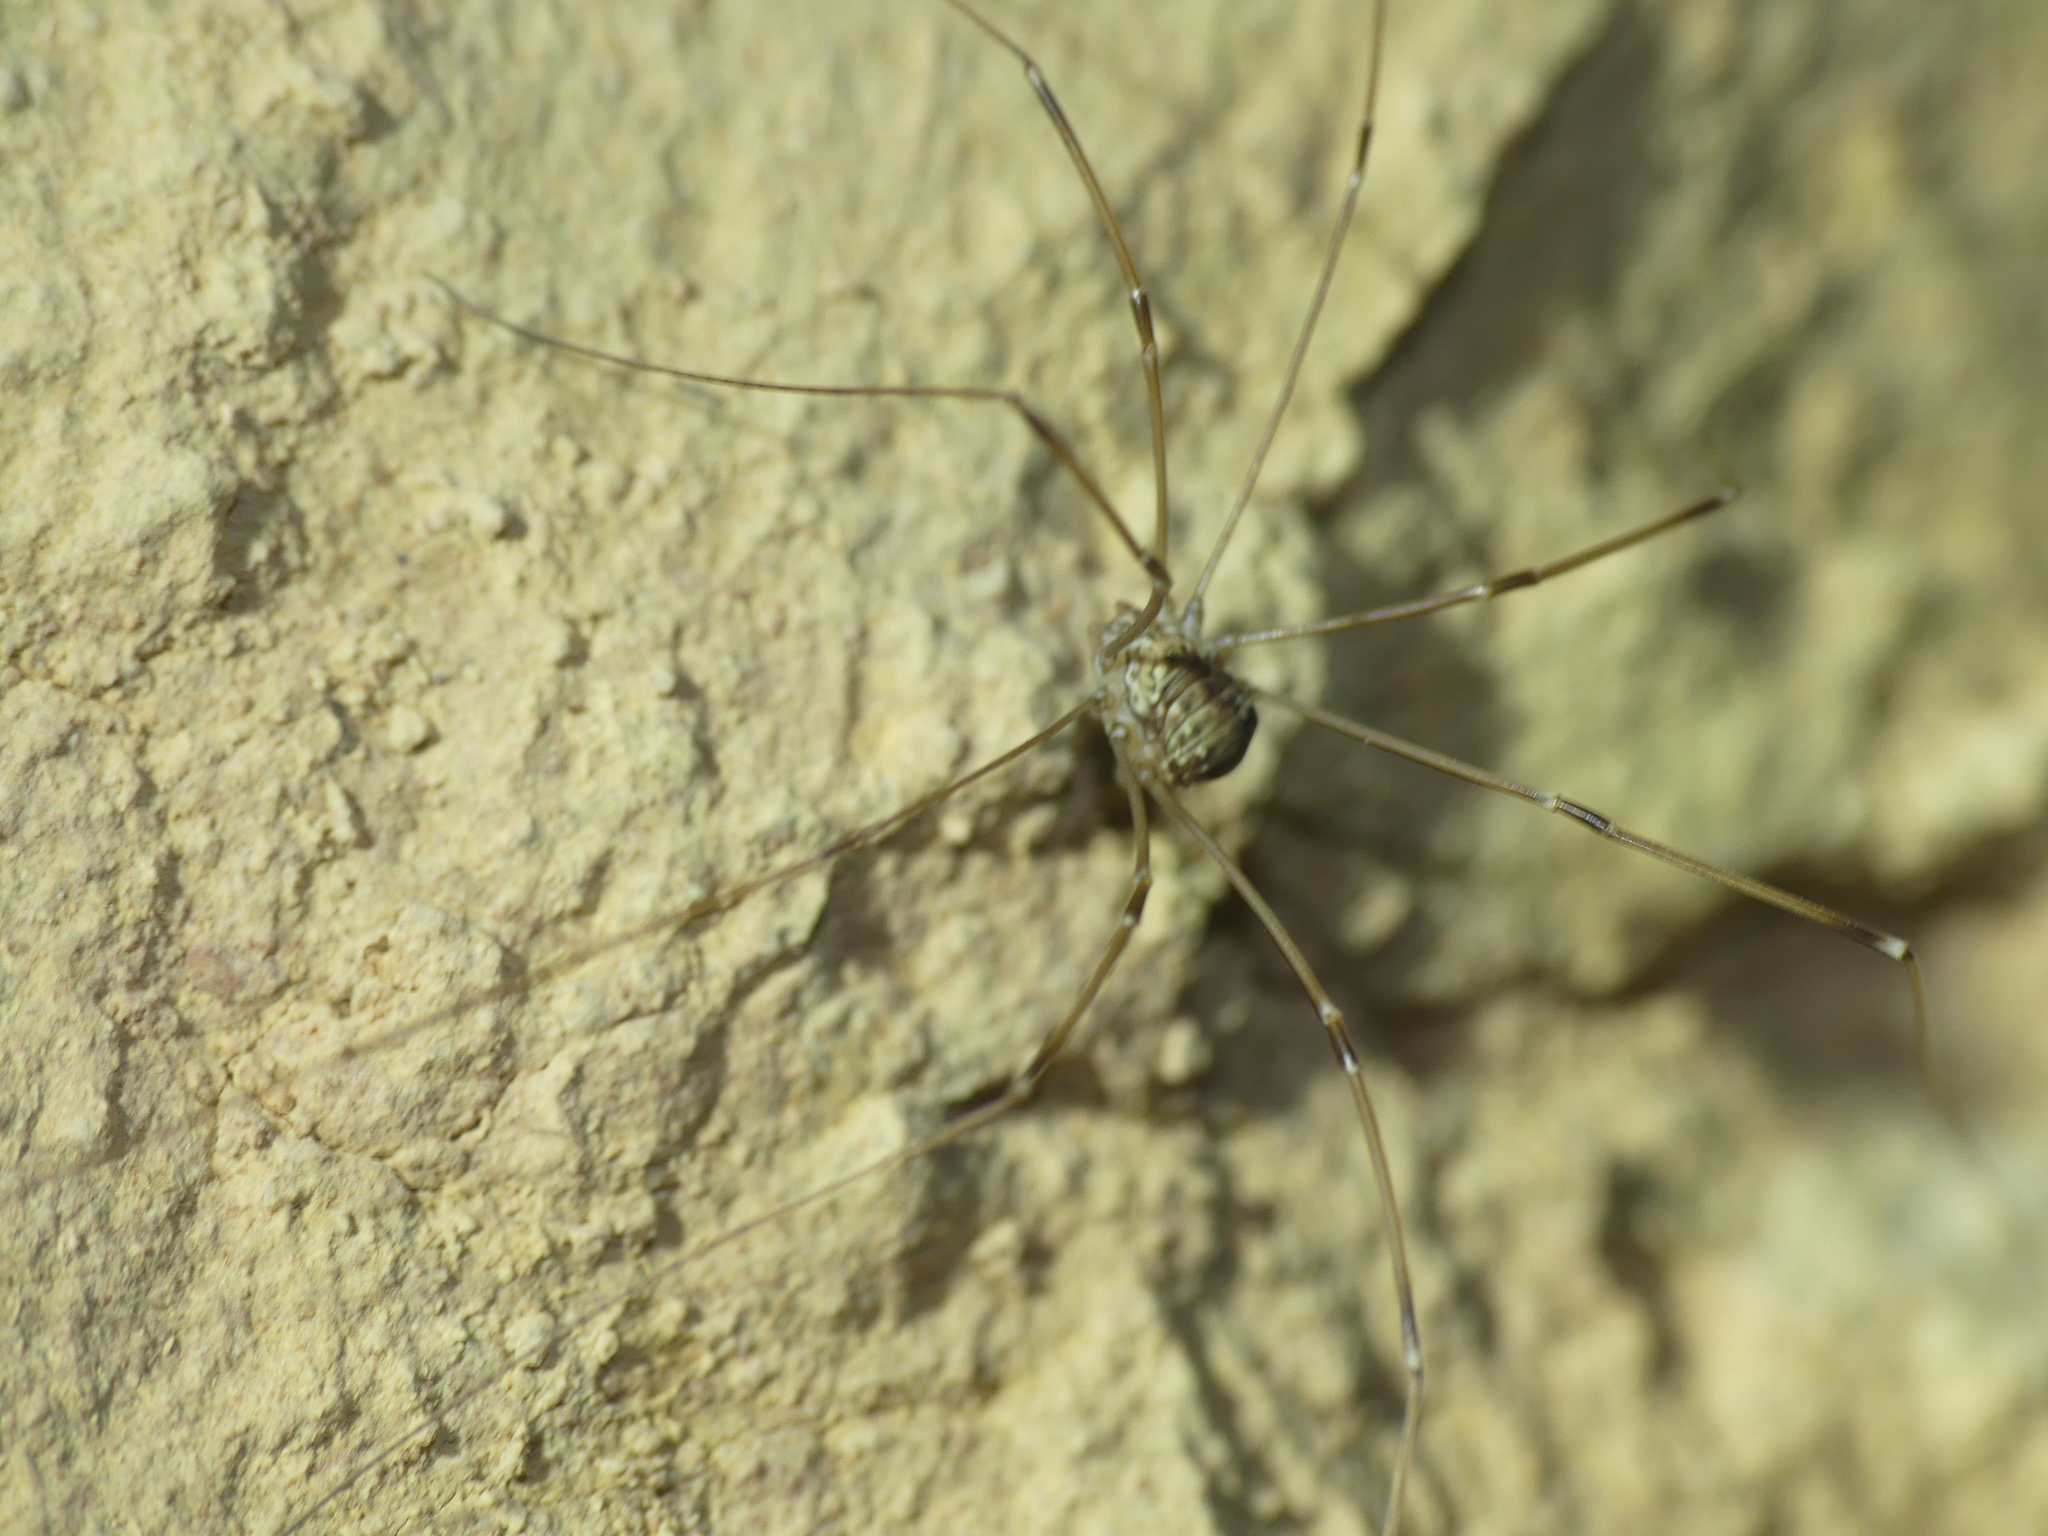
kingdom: Animalia
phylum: Arthropoda
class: Arachnida
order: Opiliones
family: Sclerosomatidae
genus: Leiobunum
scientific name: Leiobunum limbatum
